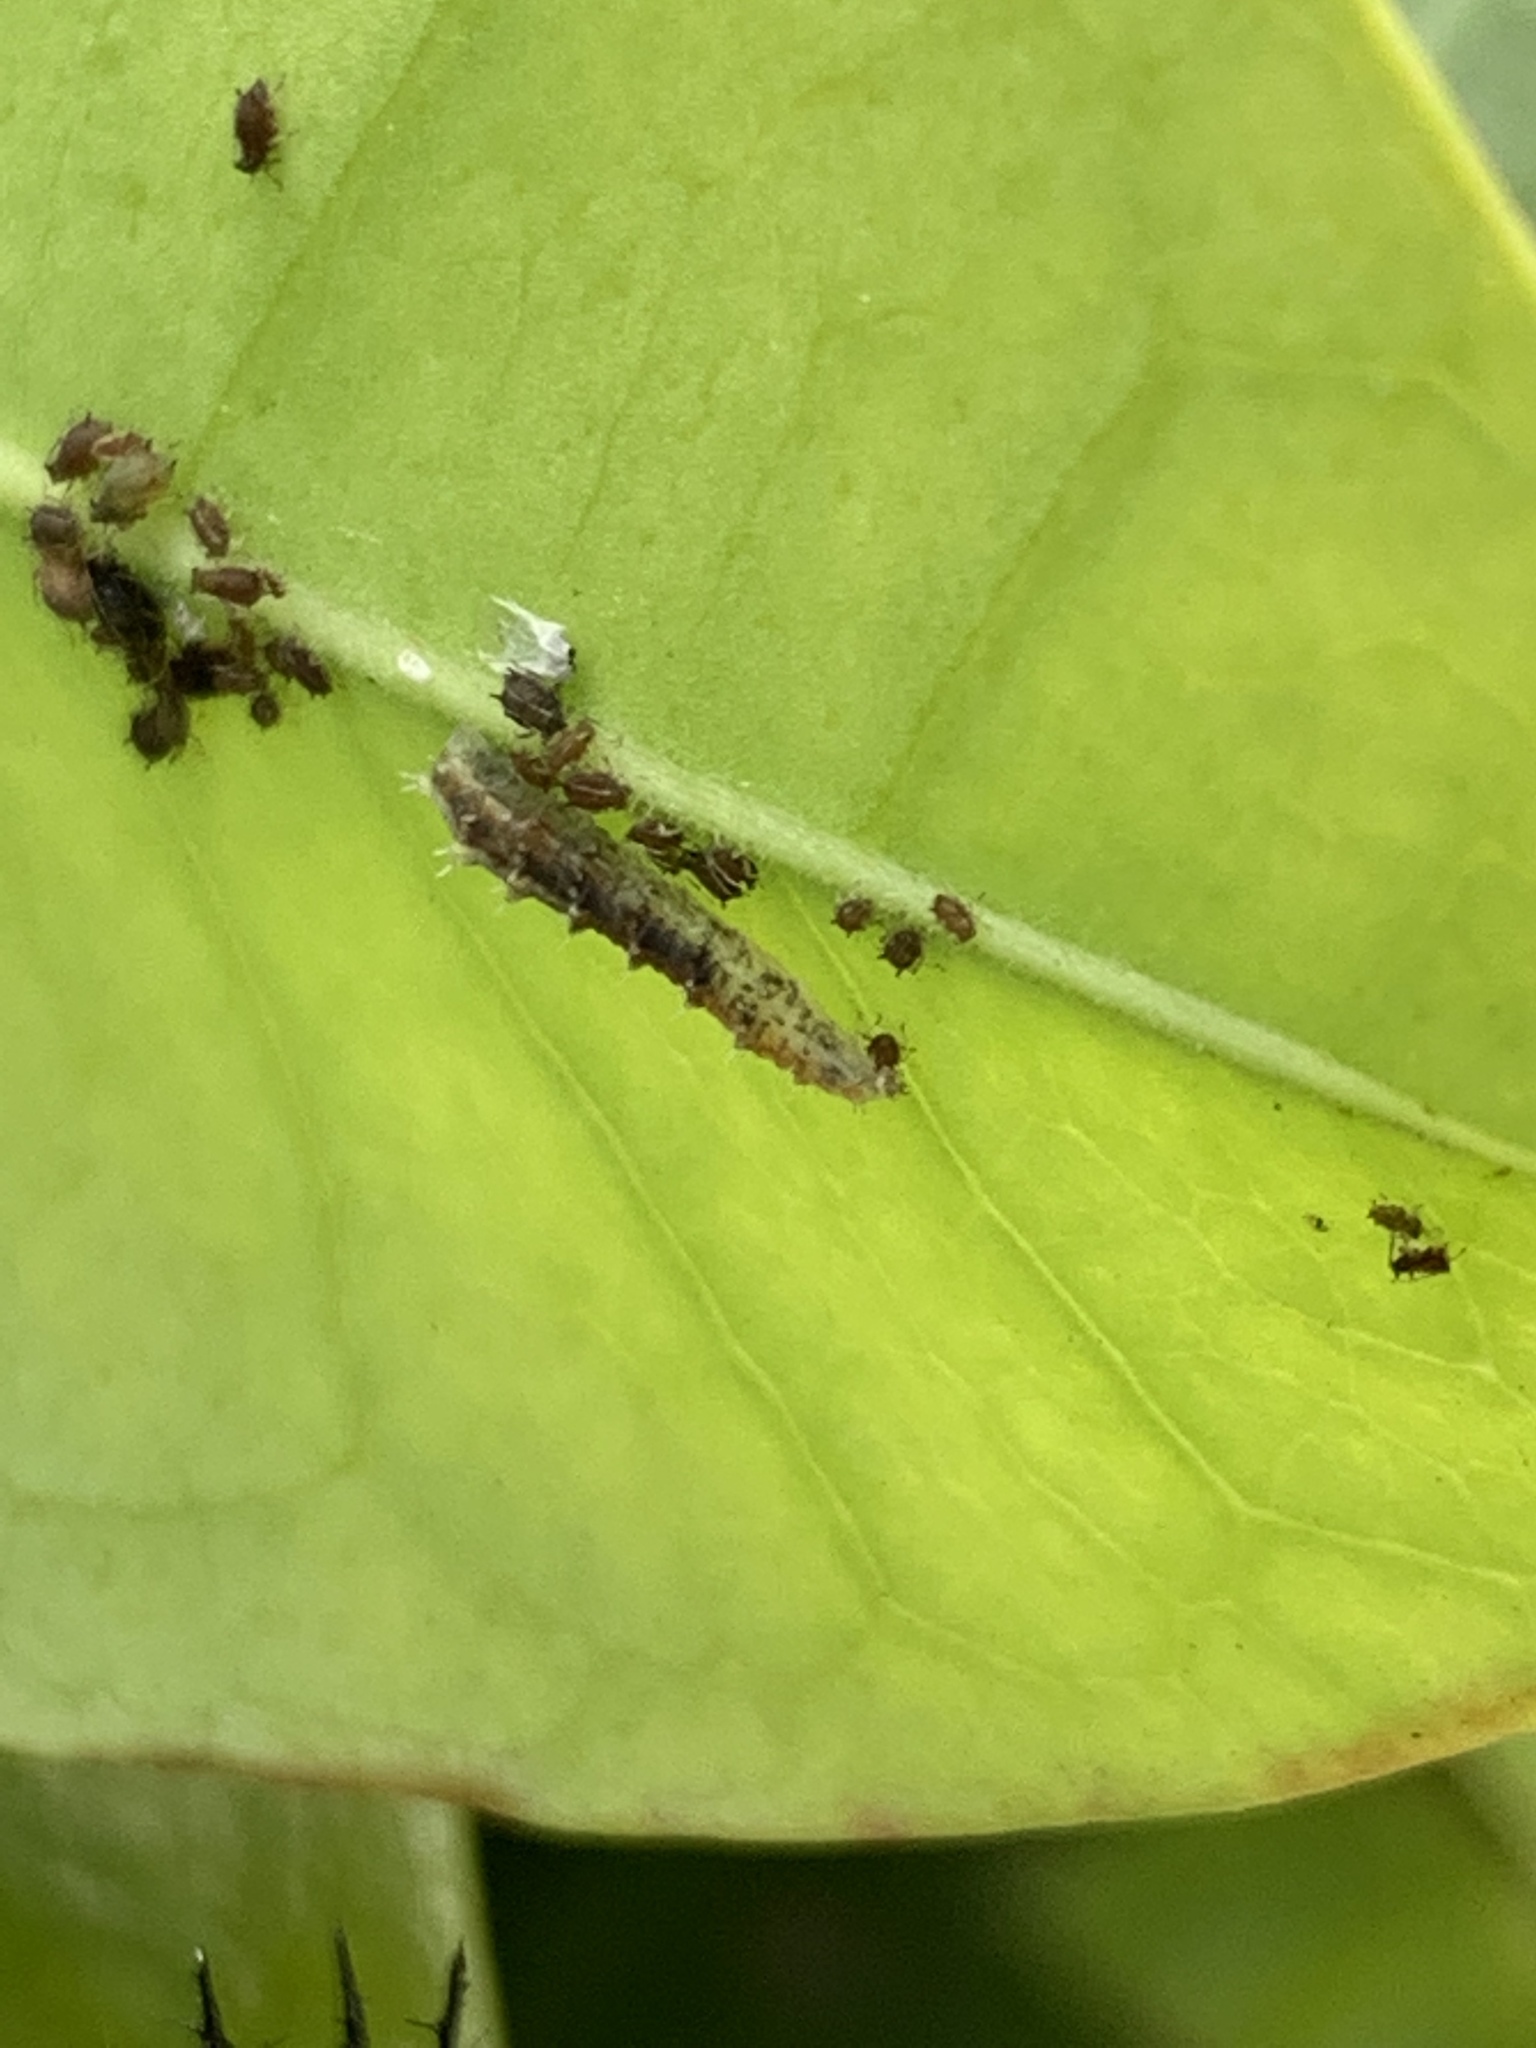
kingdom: Animalia
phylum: Arthropoda
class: Insecta
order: Diptera
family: Syrphidae
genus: Dioprosopa
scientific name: Dioprosopa clavatus
